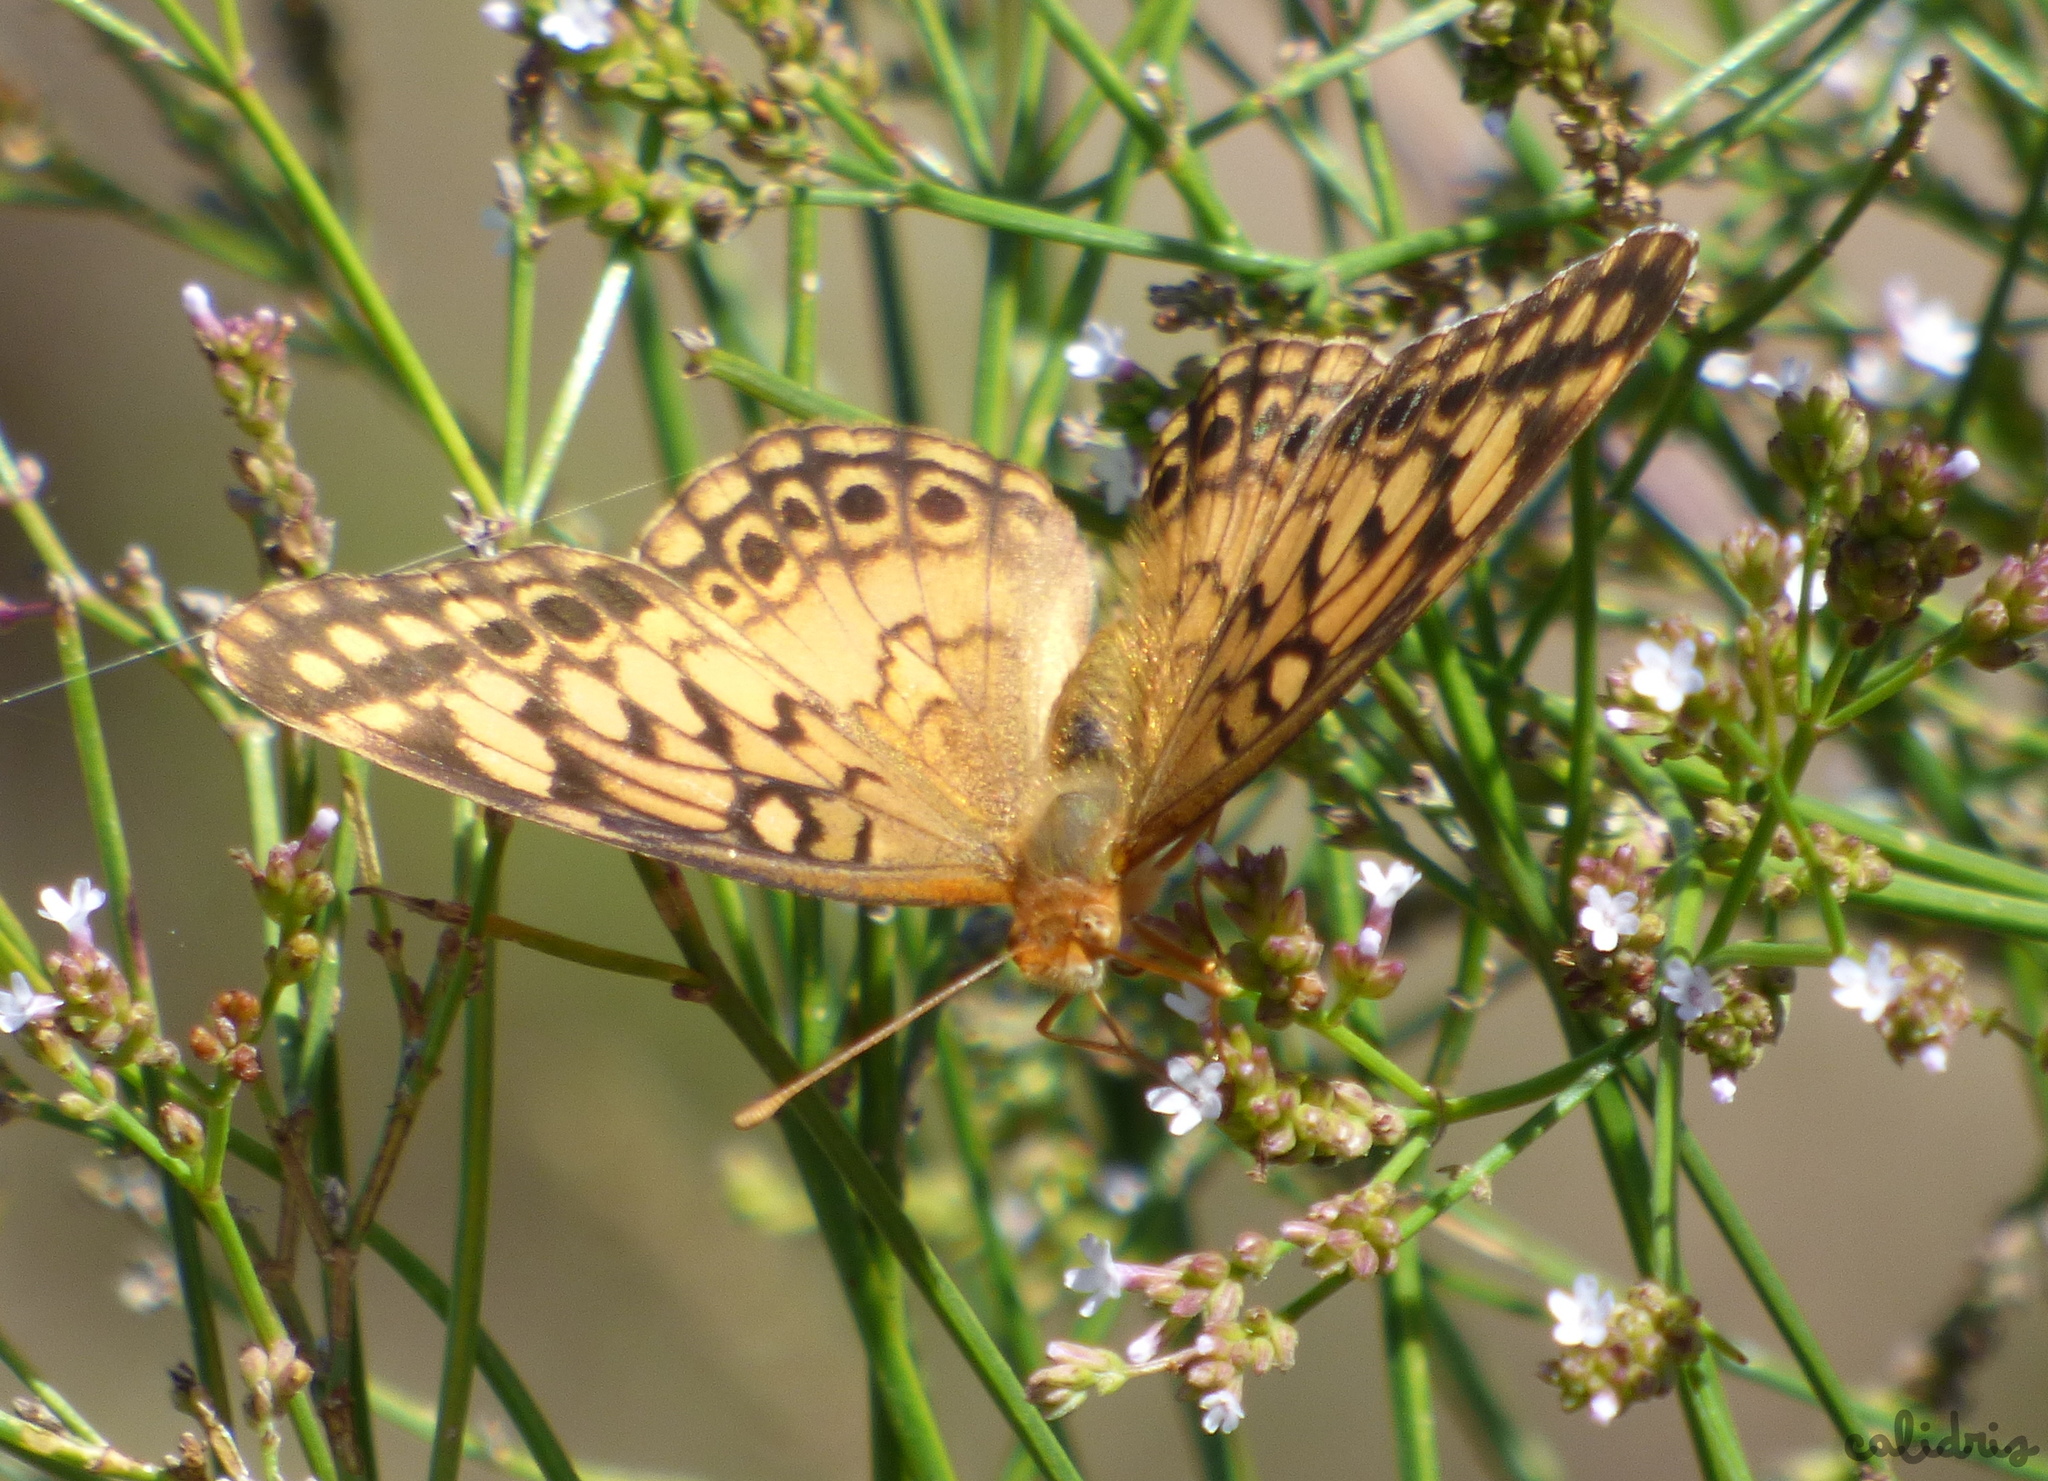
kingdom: Animalia
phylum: Arthropoda
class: Insecta
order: Lepidoptera
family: Nymphalidae
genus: Euptoieta
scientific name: Euptoieta hortensia
